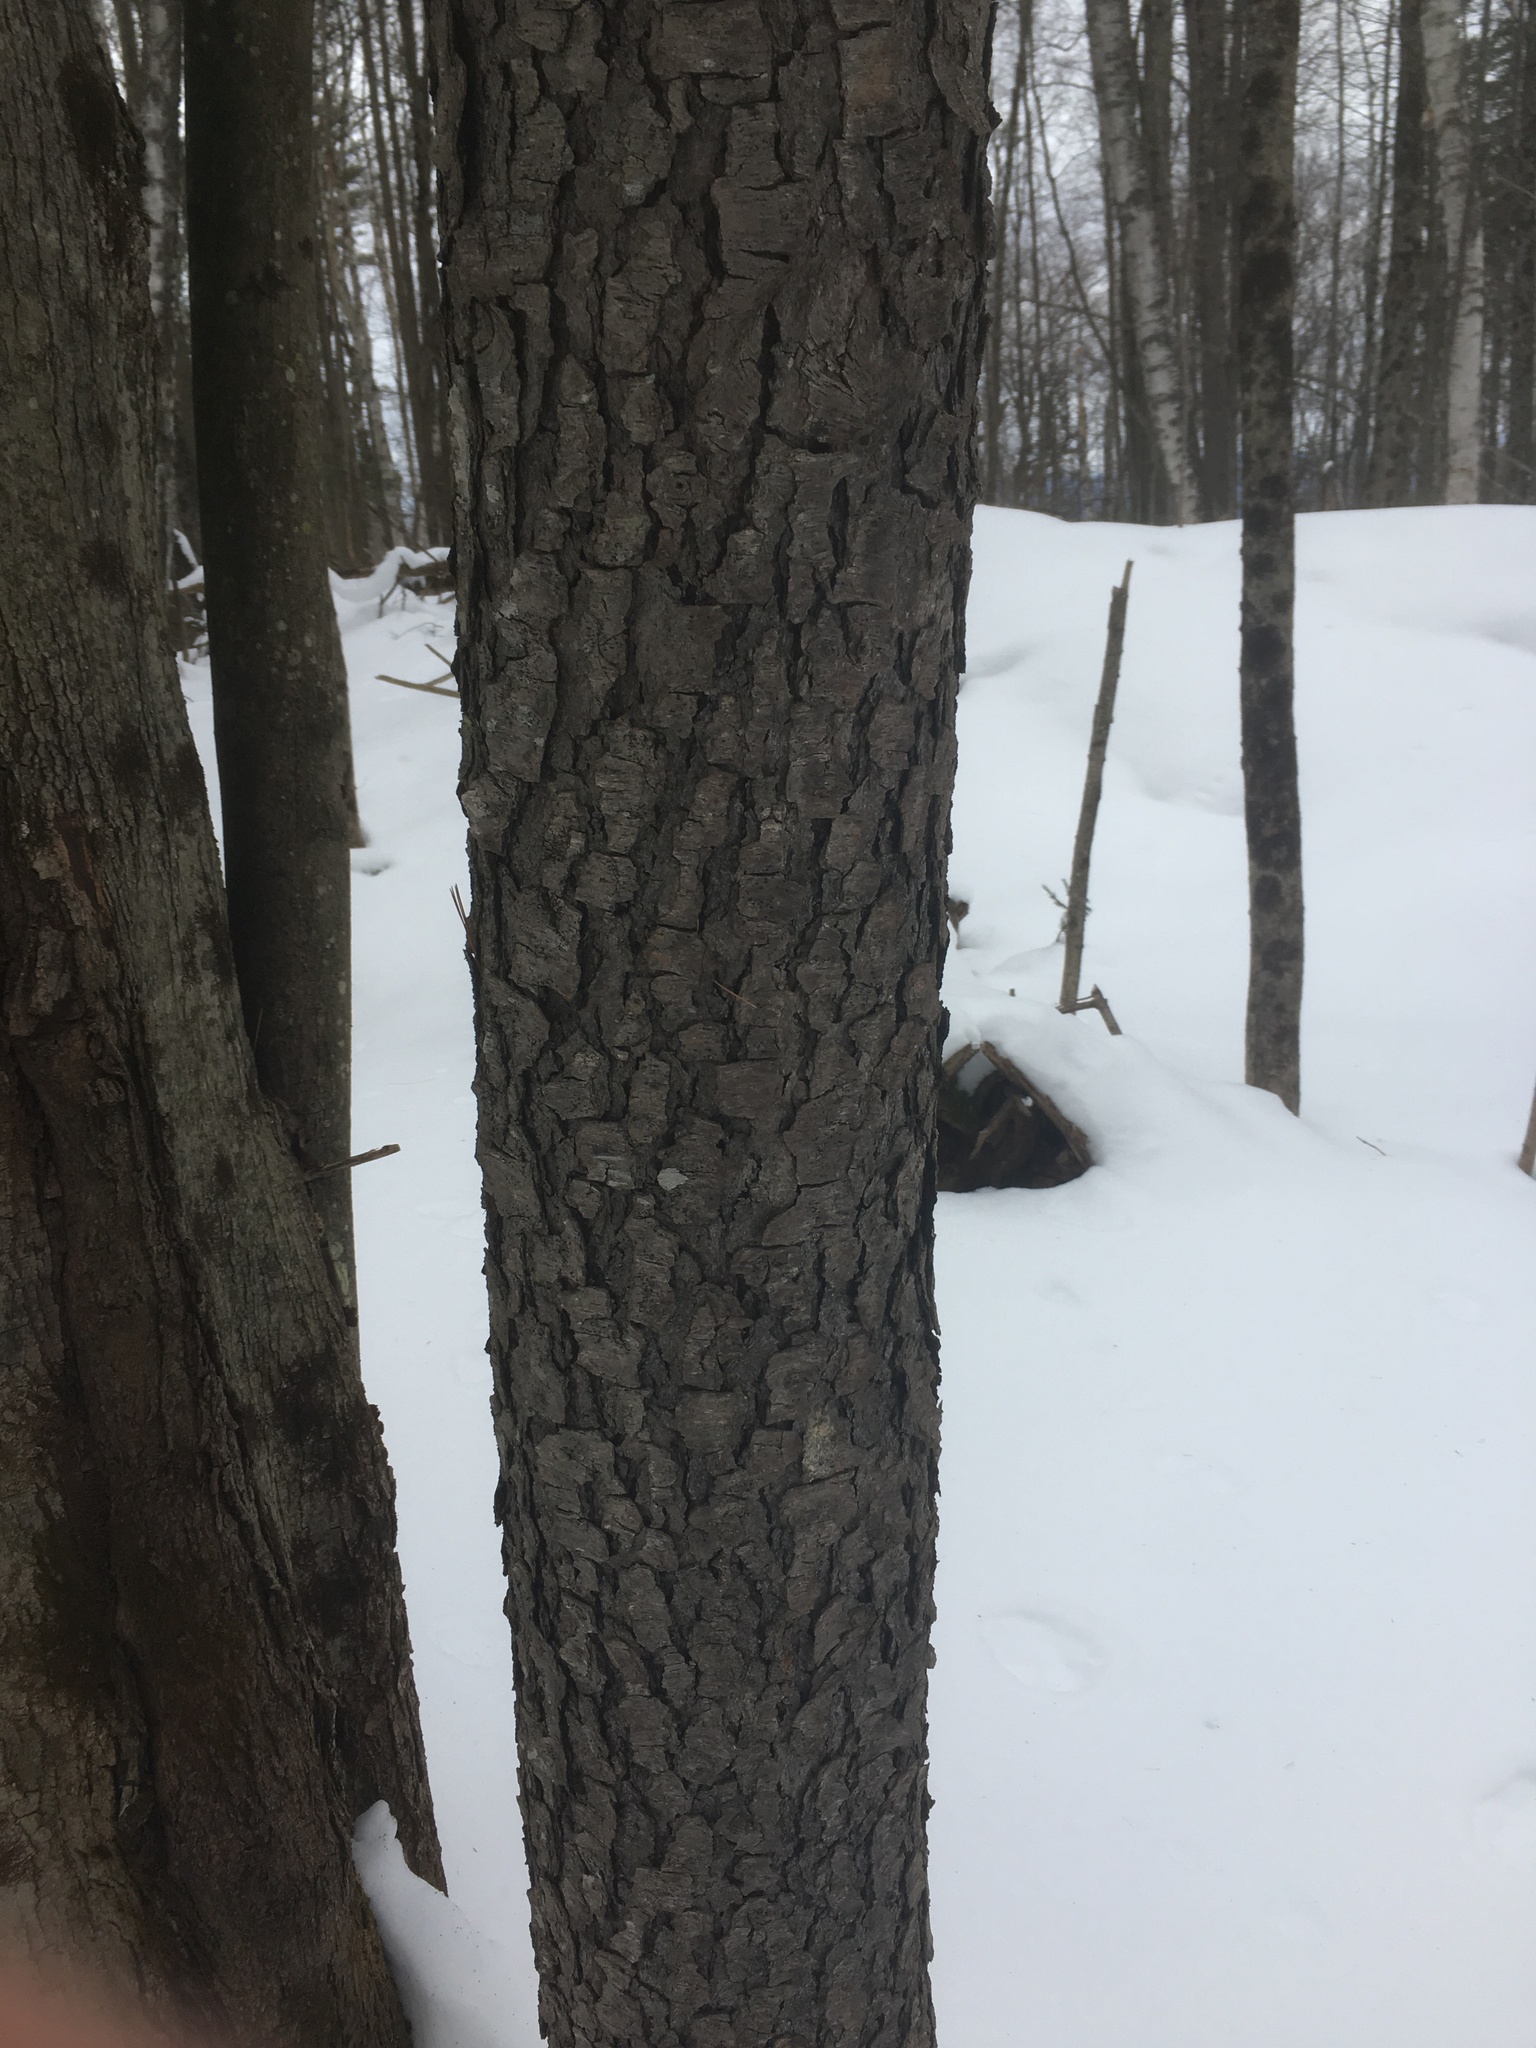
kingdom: Plantae
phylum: Tracheophyta
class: Magnoliopsida
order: Rosales
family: Rosaceae
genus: Prunus
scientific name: Prunus serotina
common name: Black cherry
